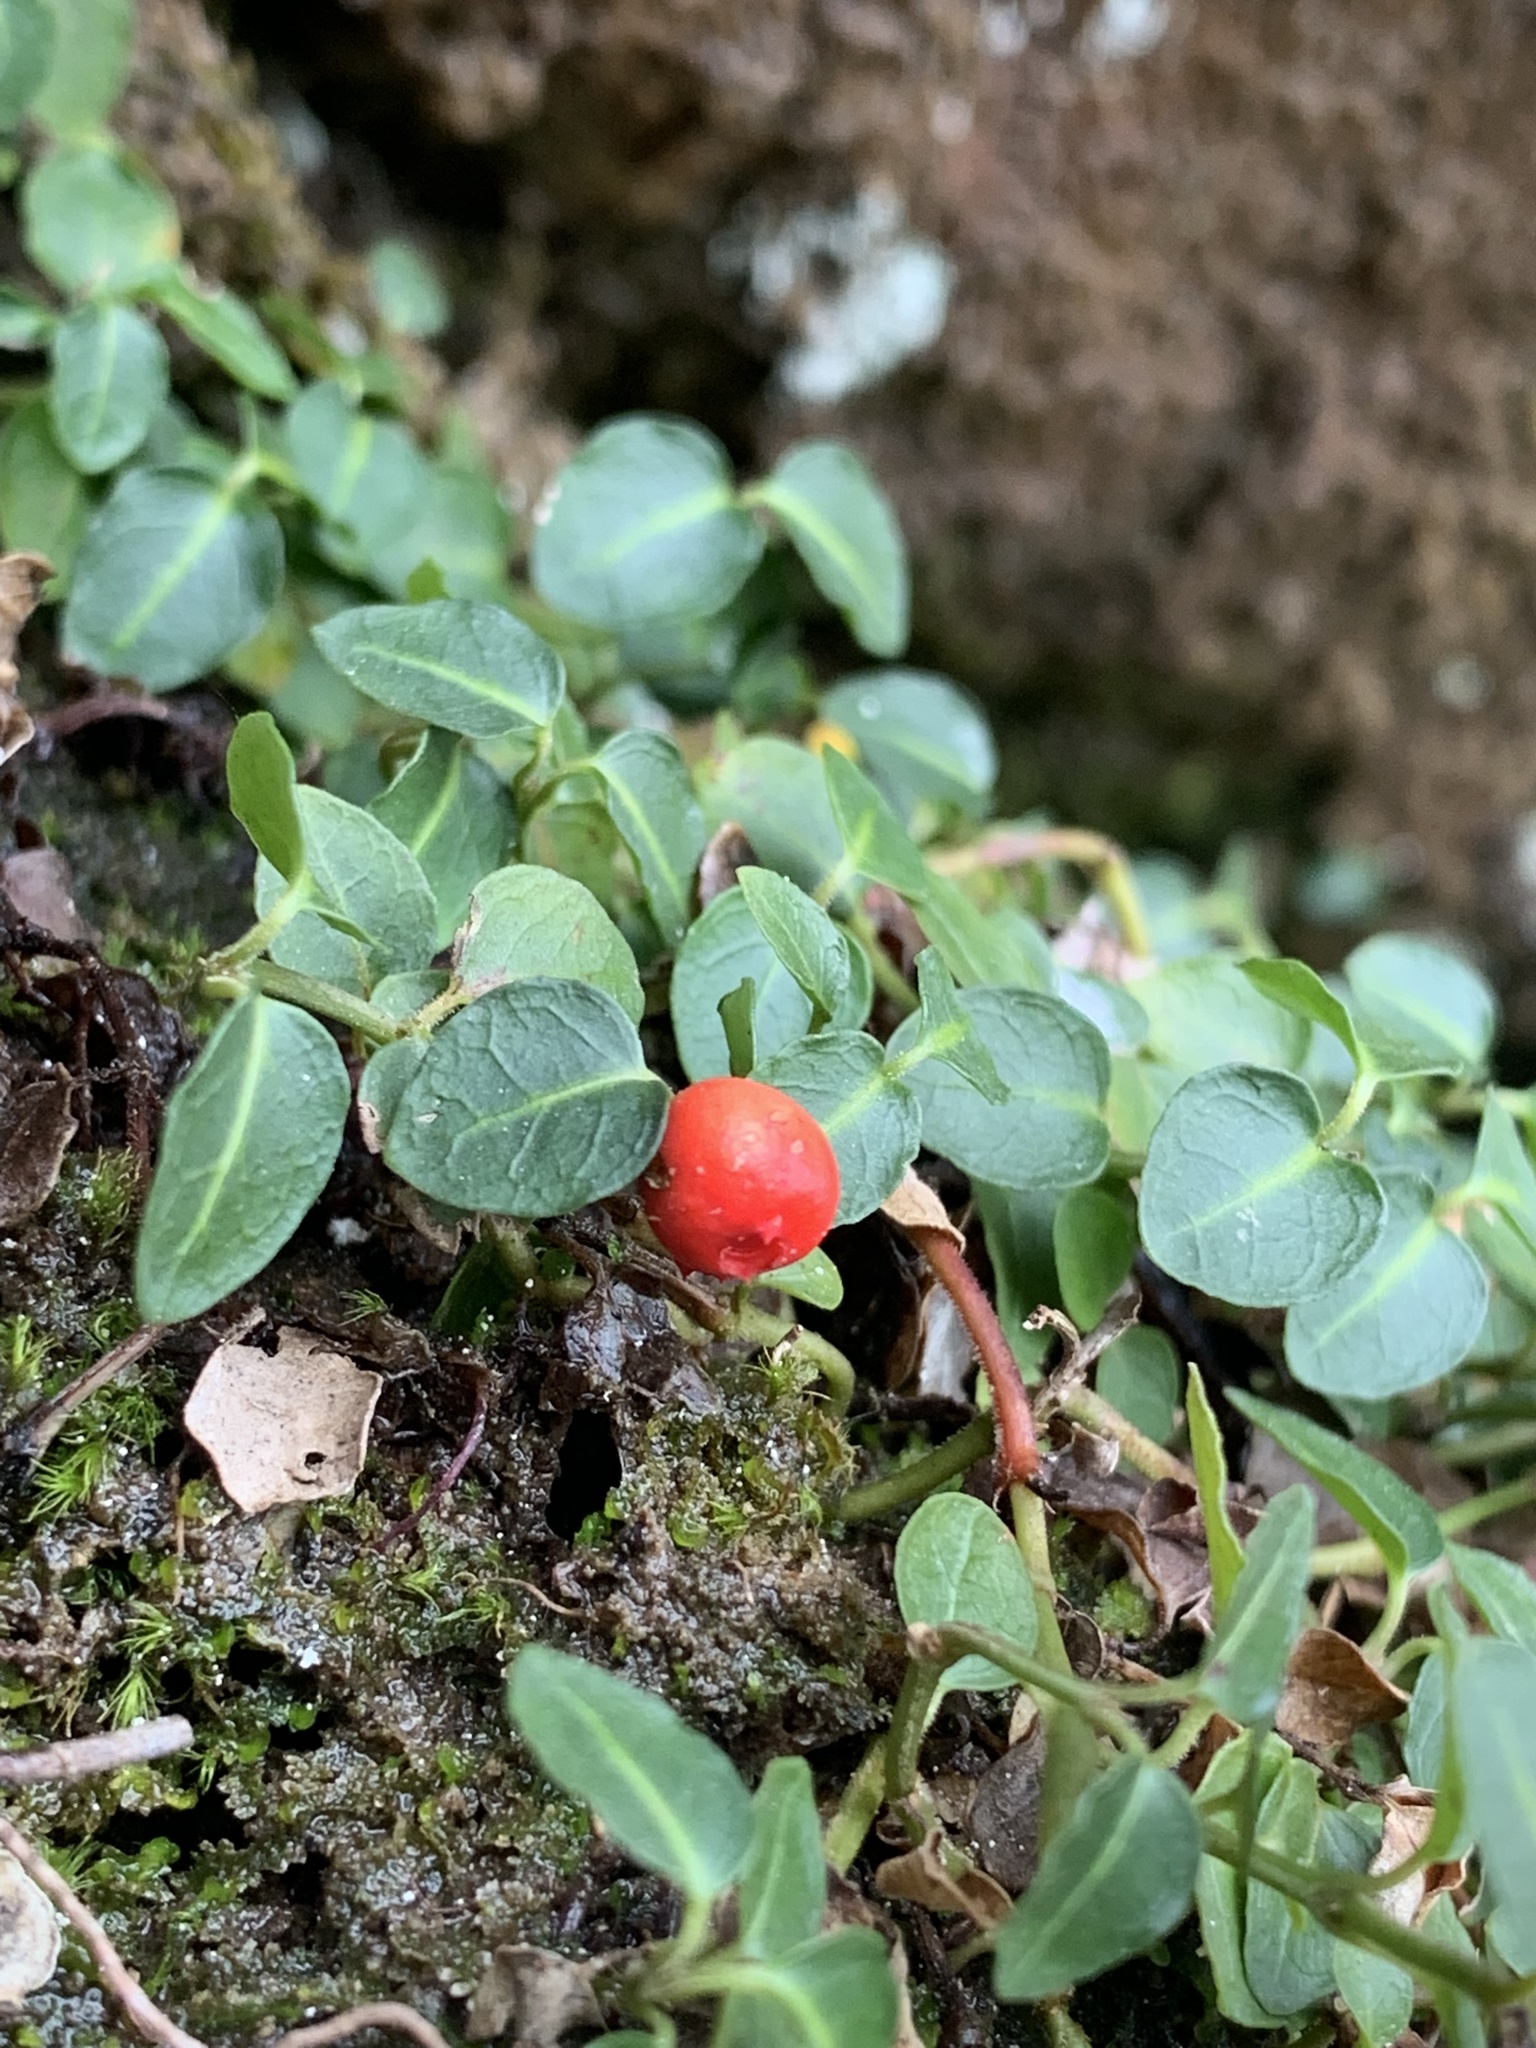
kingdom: Plantae
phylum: Tracheophyta
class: Magnoliopsida
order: Gentianales
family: Rubiaceae
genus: Mitchella
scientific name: Mitchella repens
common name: Partridge-berry
